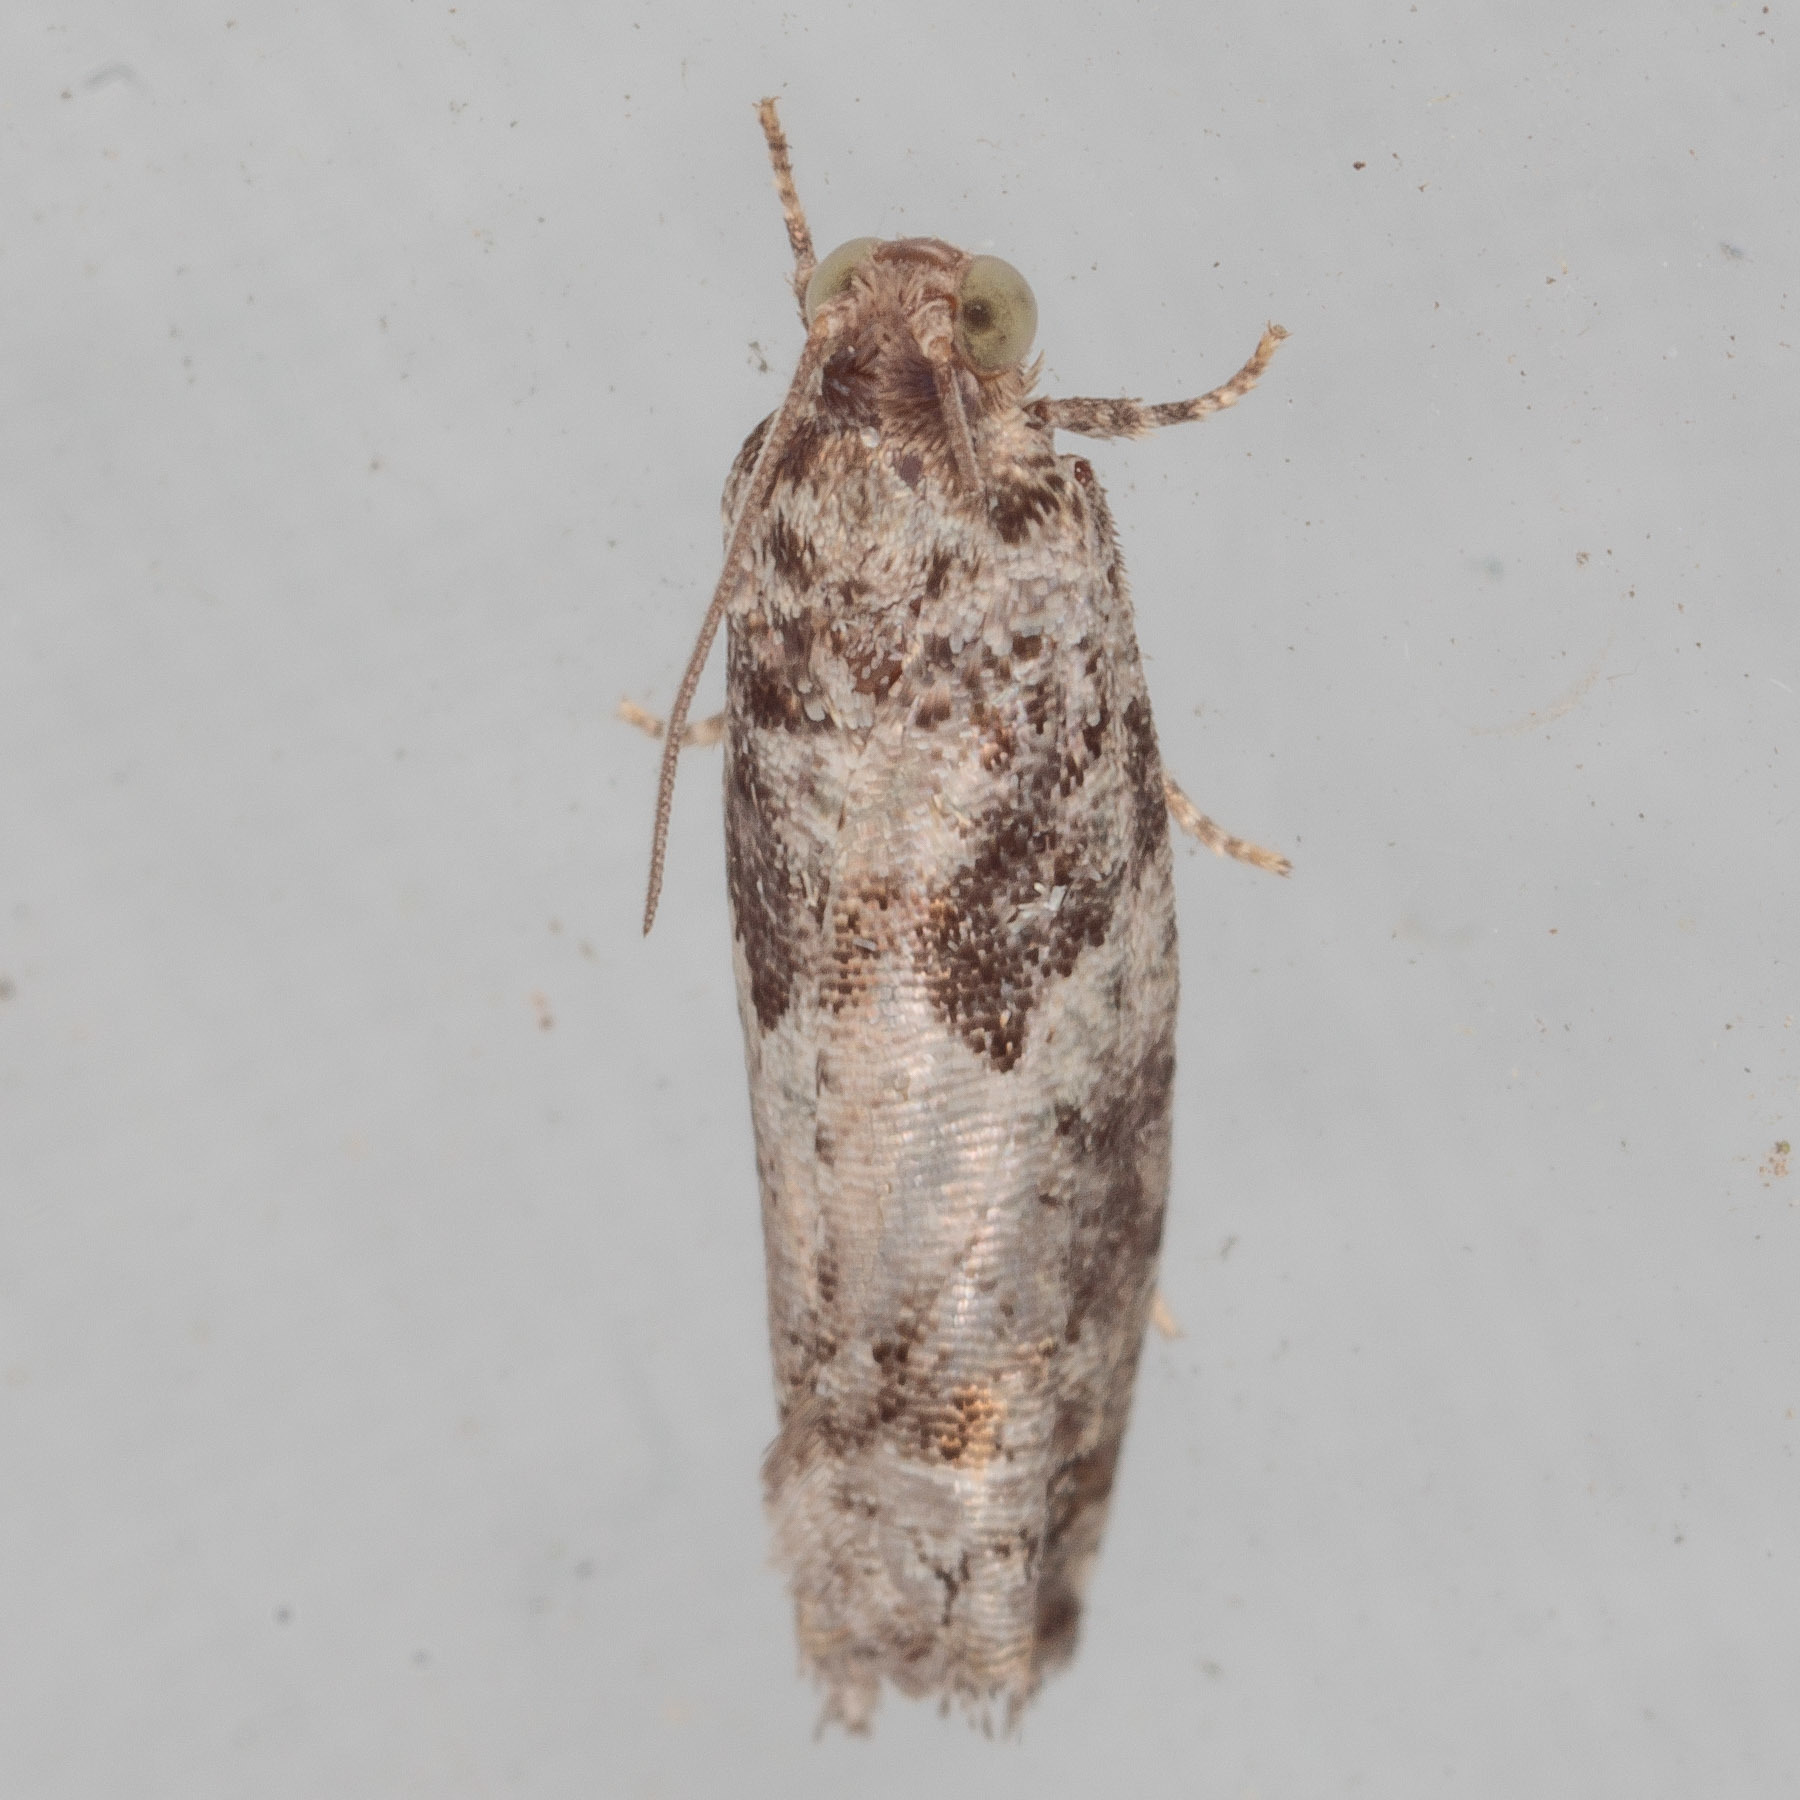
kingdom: Animalia
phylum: Arthropoda
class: Insecta
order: Lepidoptera
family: Tortricidae
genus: Pseudexentera
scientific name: Pseudexentera knudsoni
